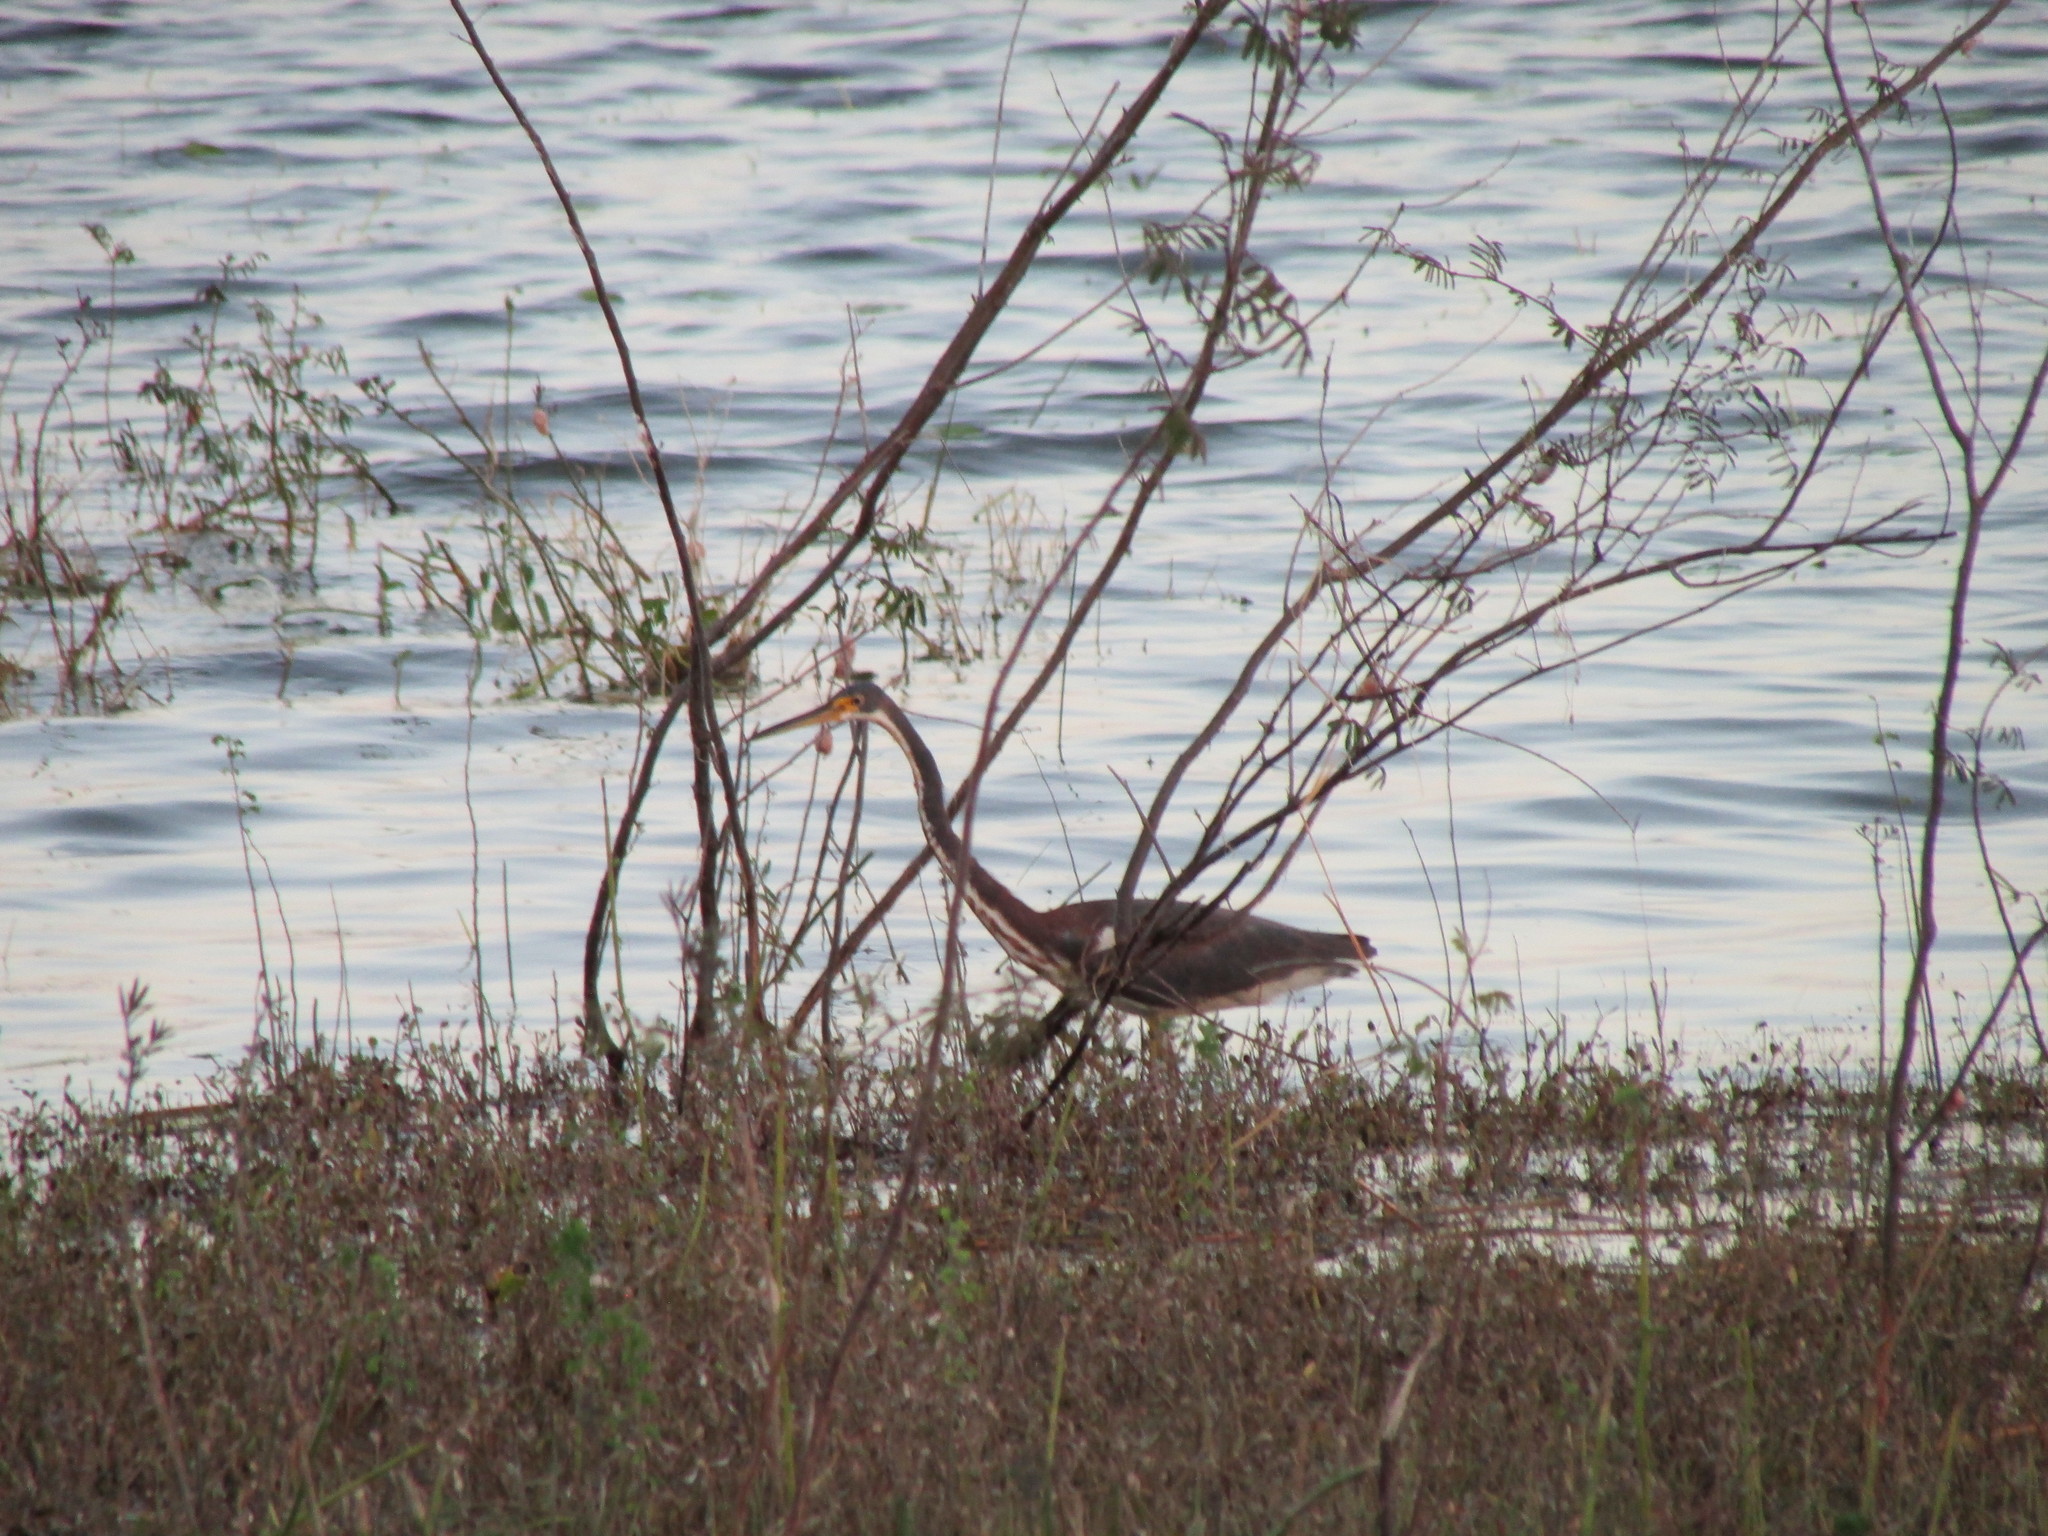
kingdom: Animalia
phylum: Chordata
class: Aves
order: Pelecaniformes
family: Ardeidae
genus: Egretta
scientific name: Egretta tricolor
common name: Tricolored heron
